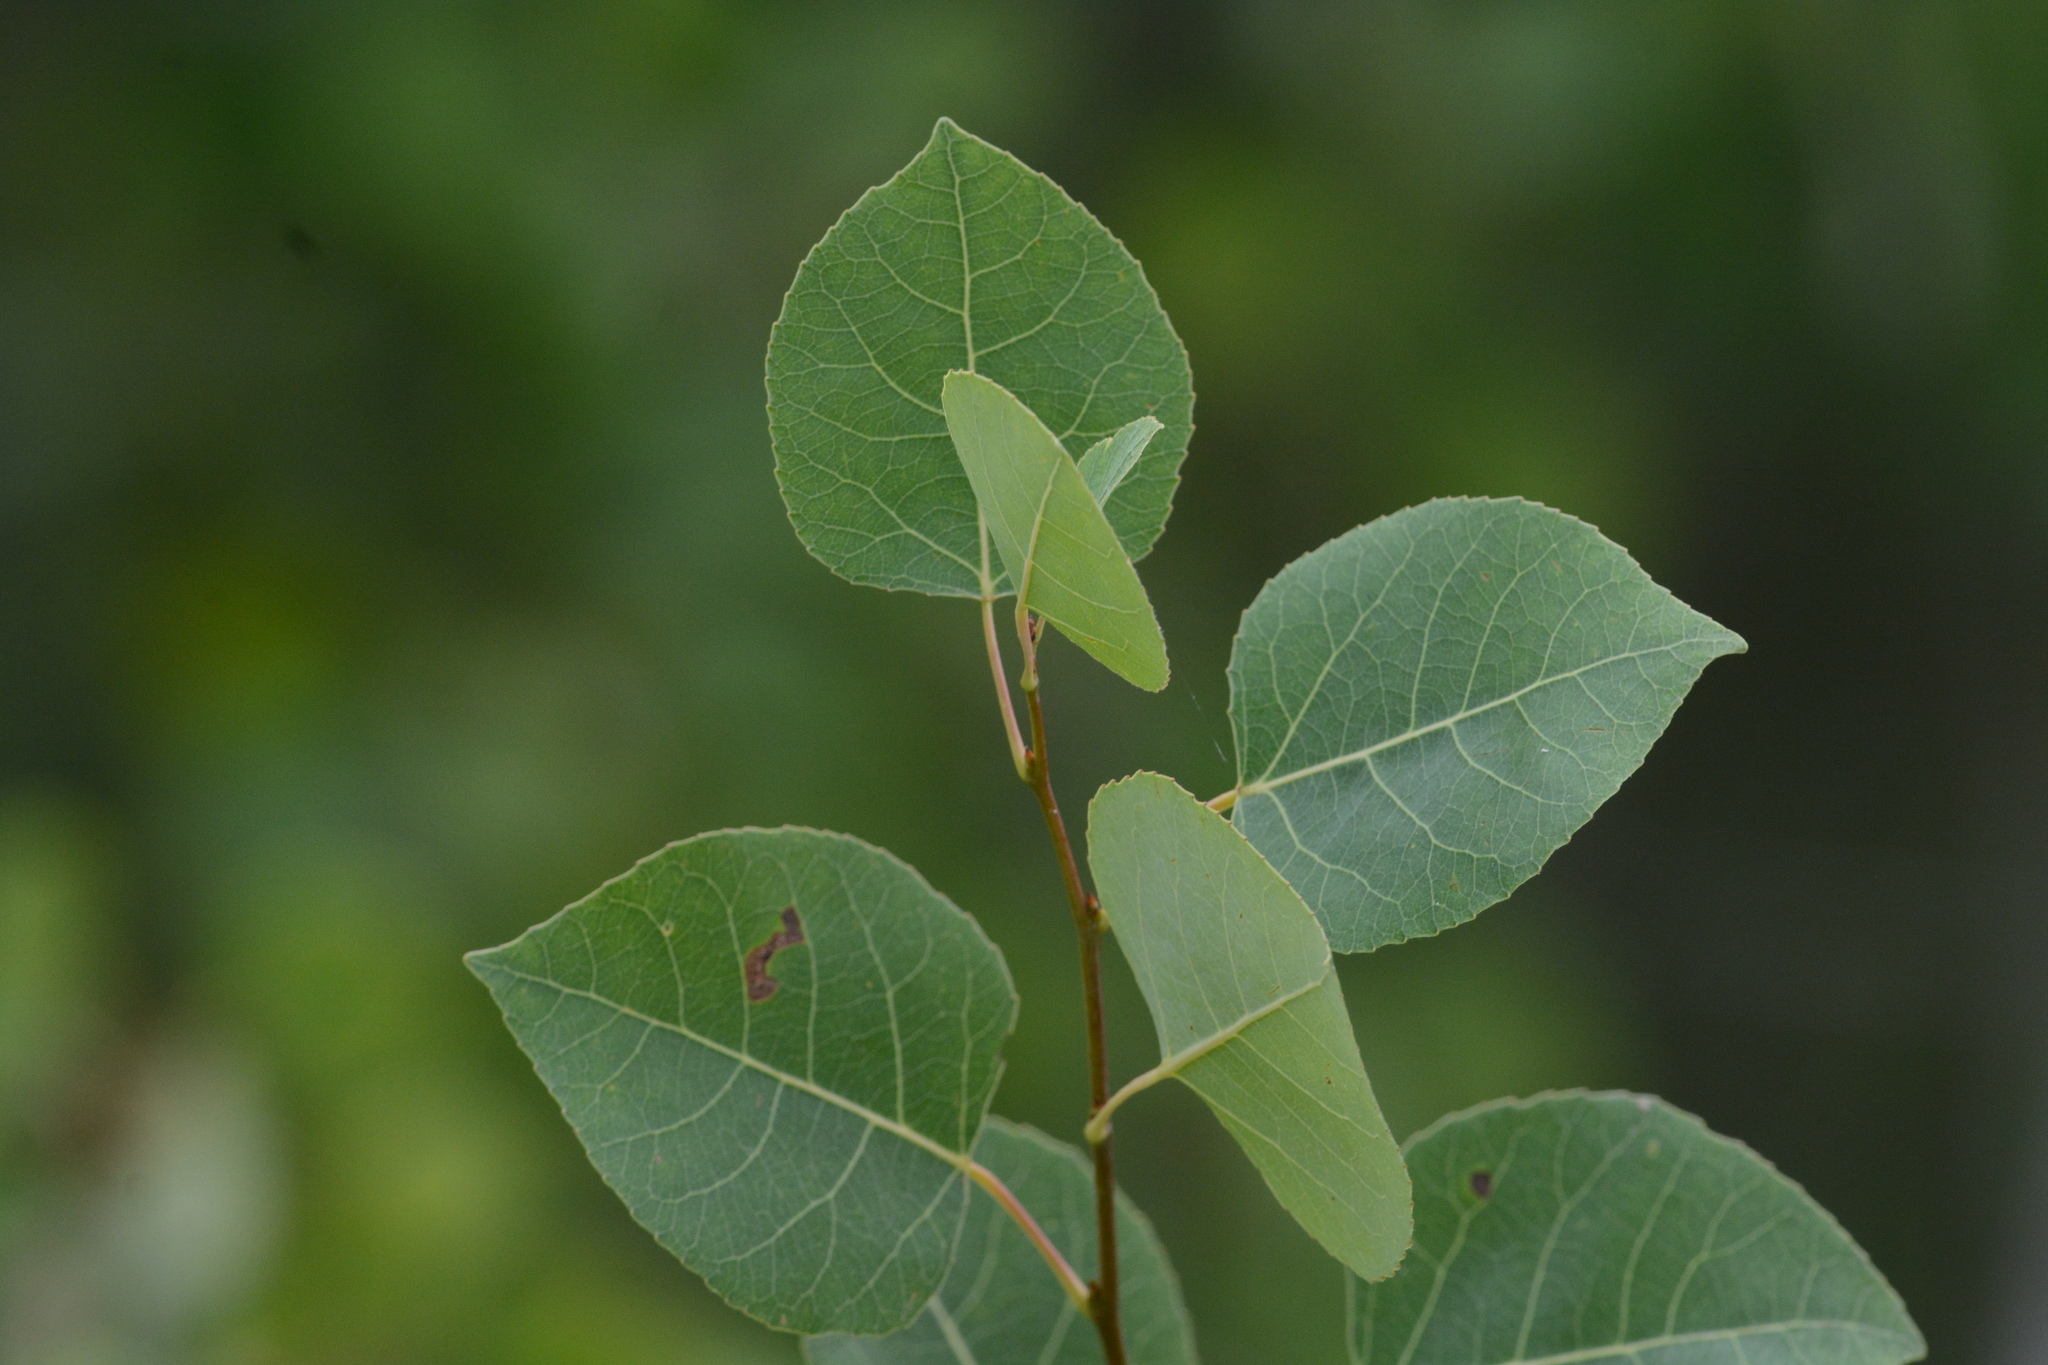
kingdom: Plantae
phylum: Tracheophyta
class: Magnoliopsida
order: Malpighiales
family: Salicaceae
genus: Populus
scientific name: Populus tremuloides
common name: Quaking aspen
